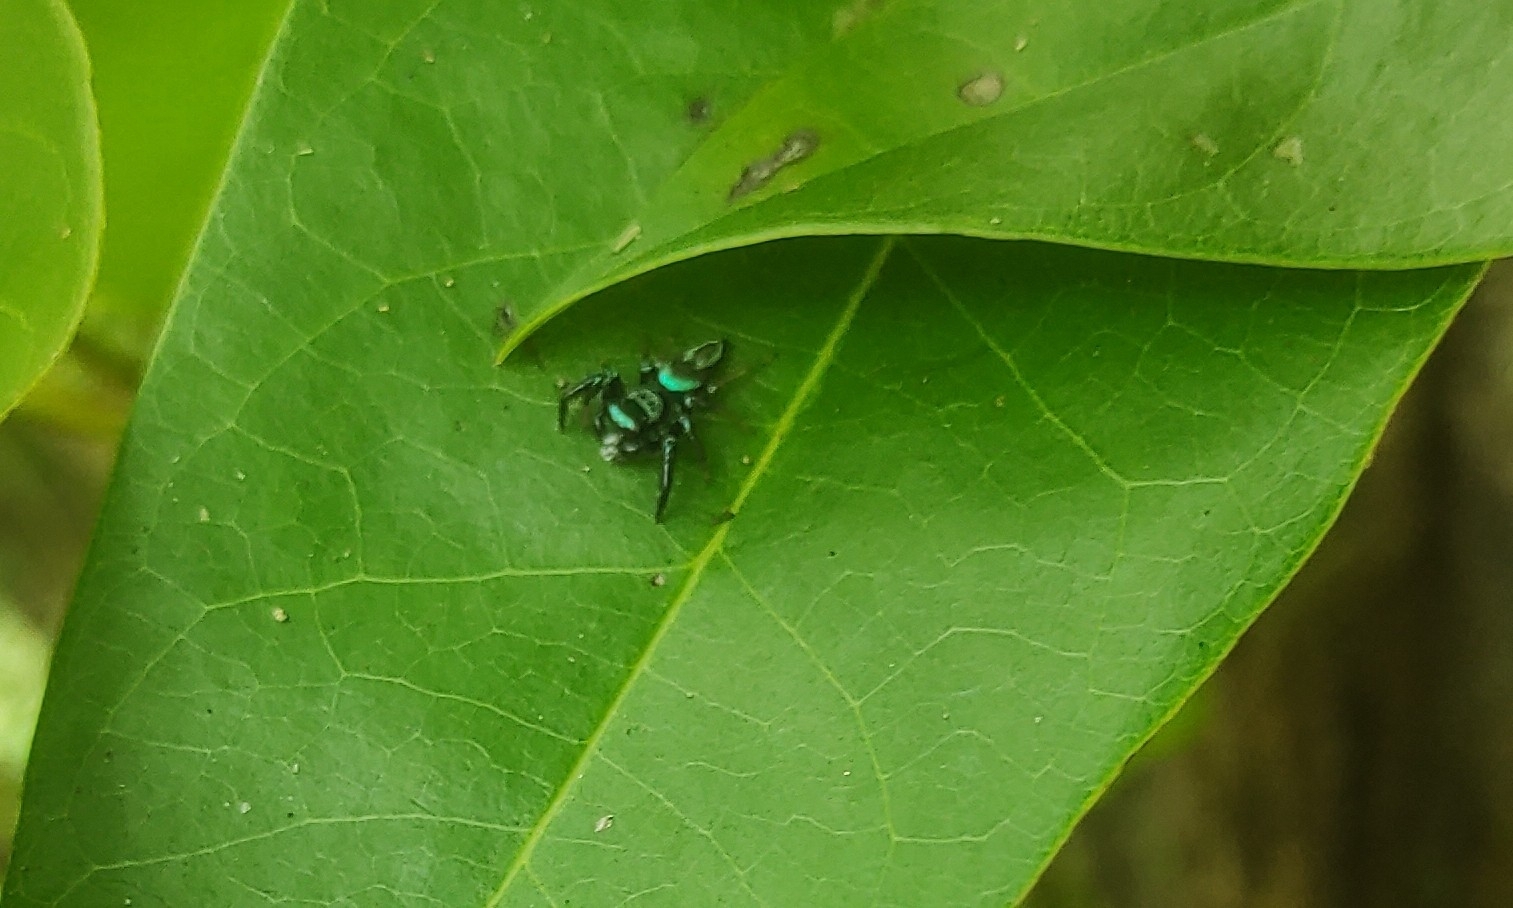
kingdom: Animalia
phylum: Arthropoda
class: Arachnida
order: Araneae
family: Salticidae
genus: Thiania
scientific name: Thiania bhamoensis
